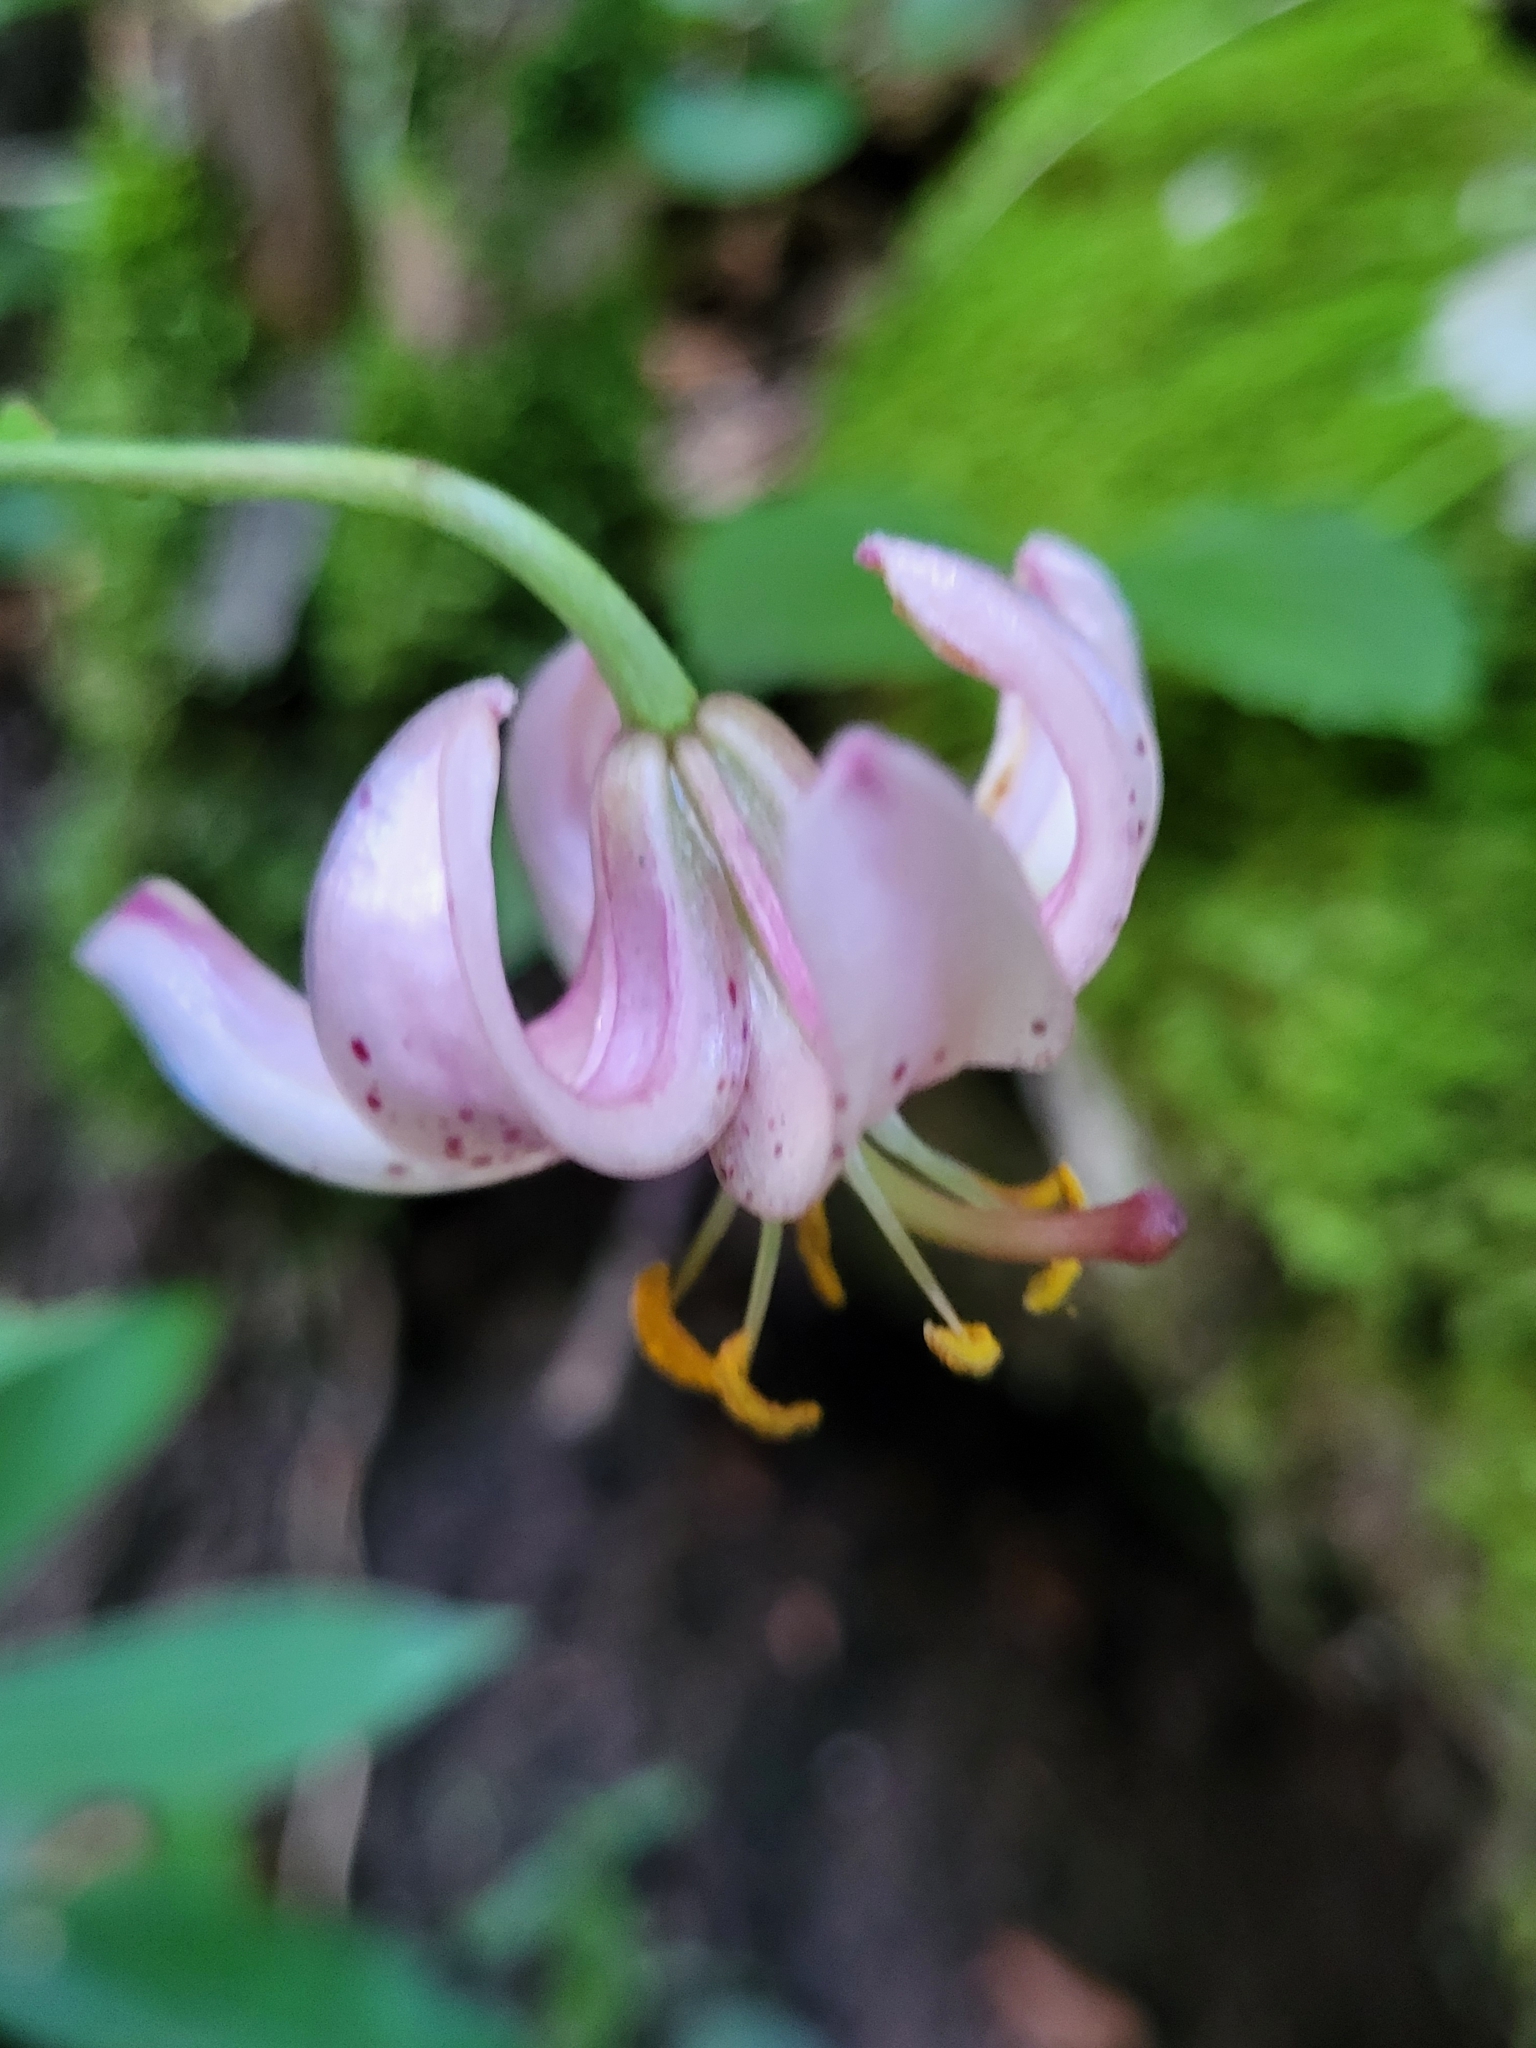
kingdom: Plantae
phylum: Tracheophyta
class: Liliopsida
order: Liliales
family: Liliaceae
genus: Lilium
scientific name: Lilium martagon
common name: Martagon lily
